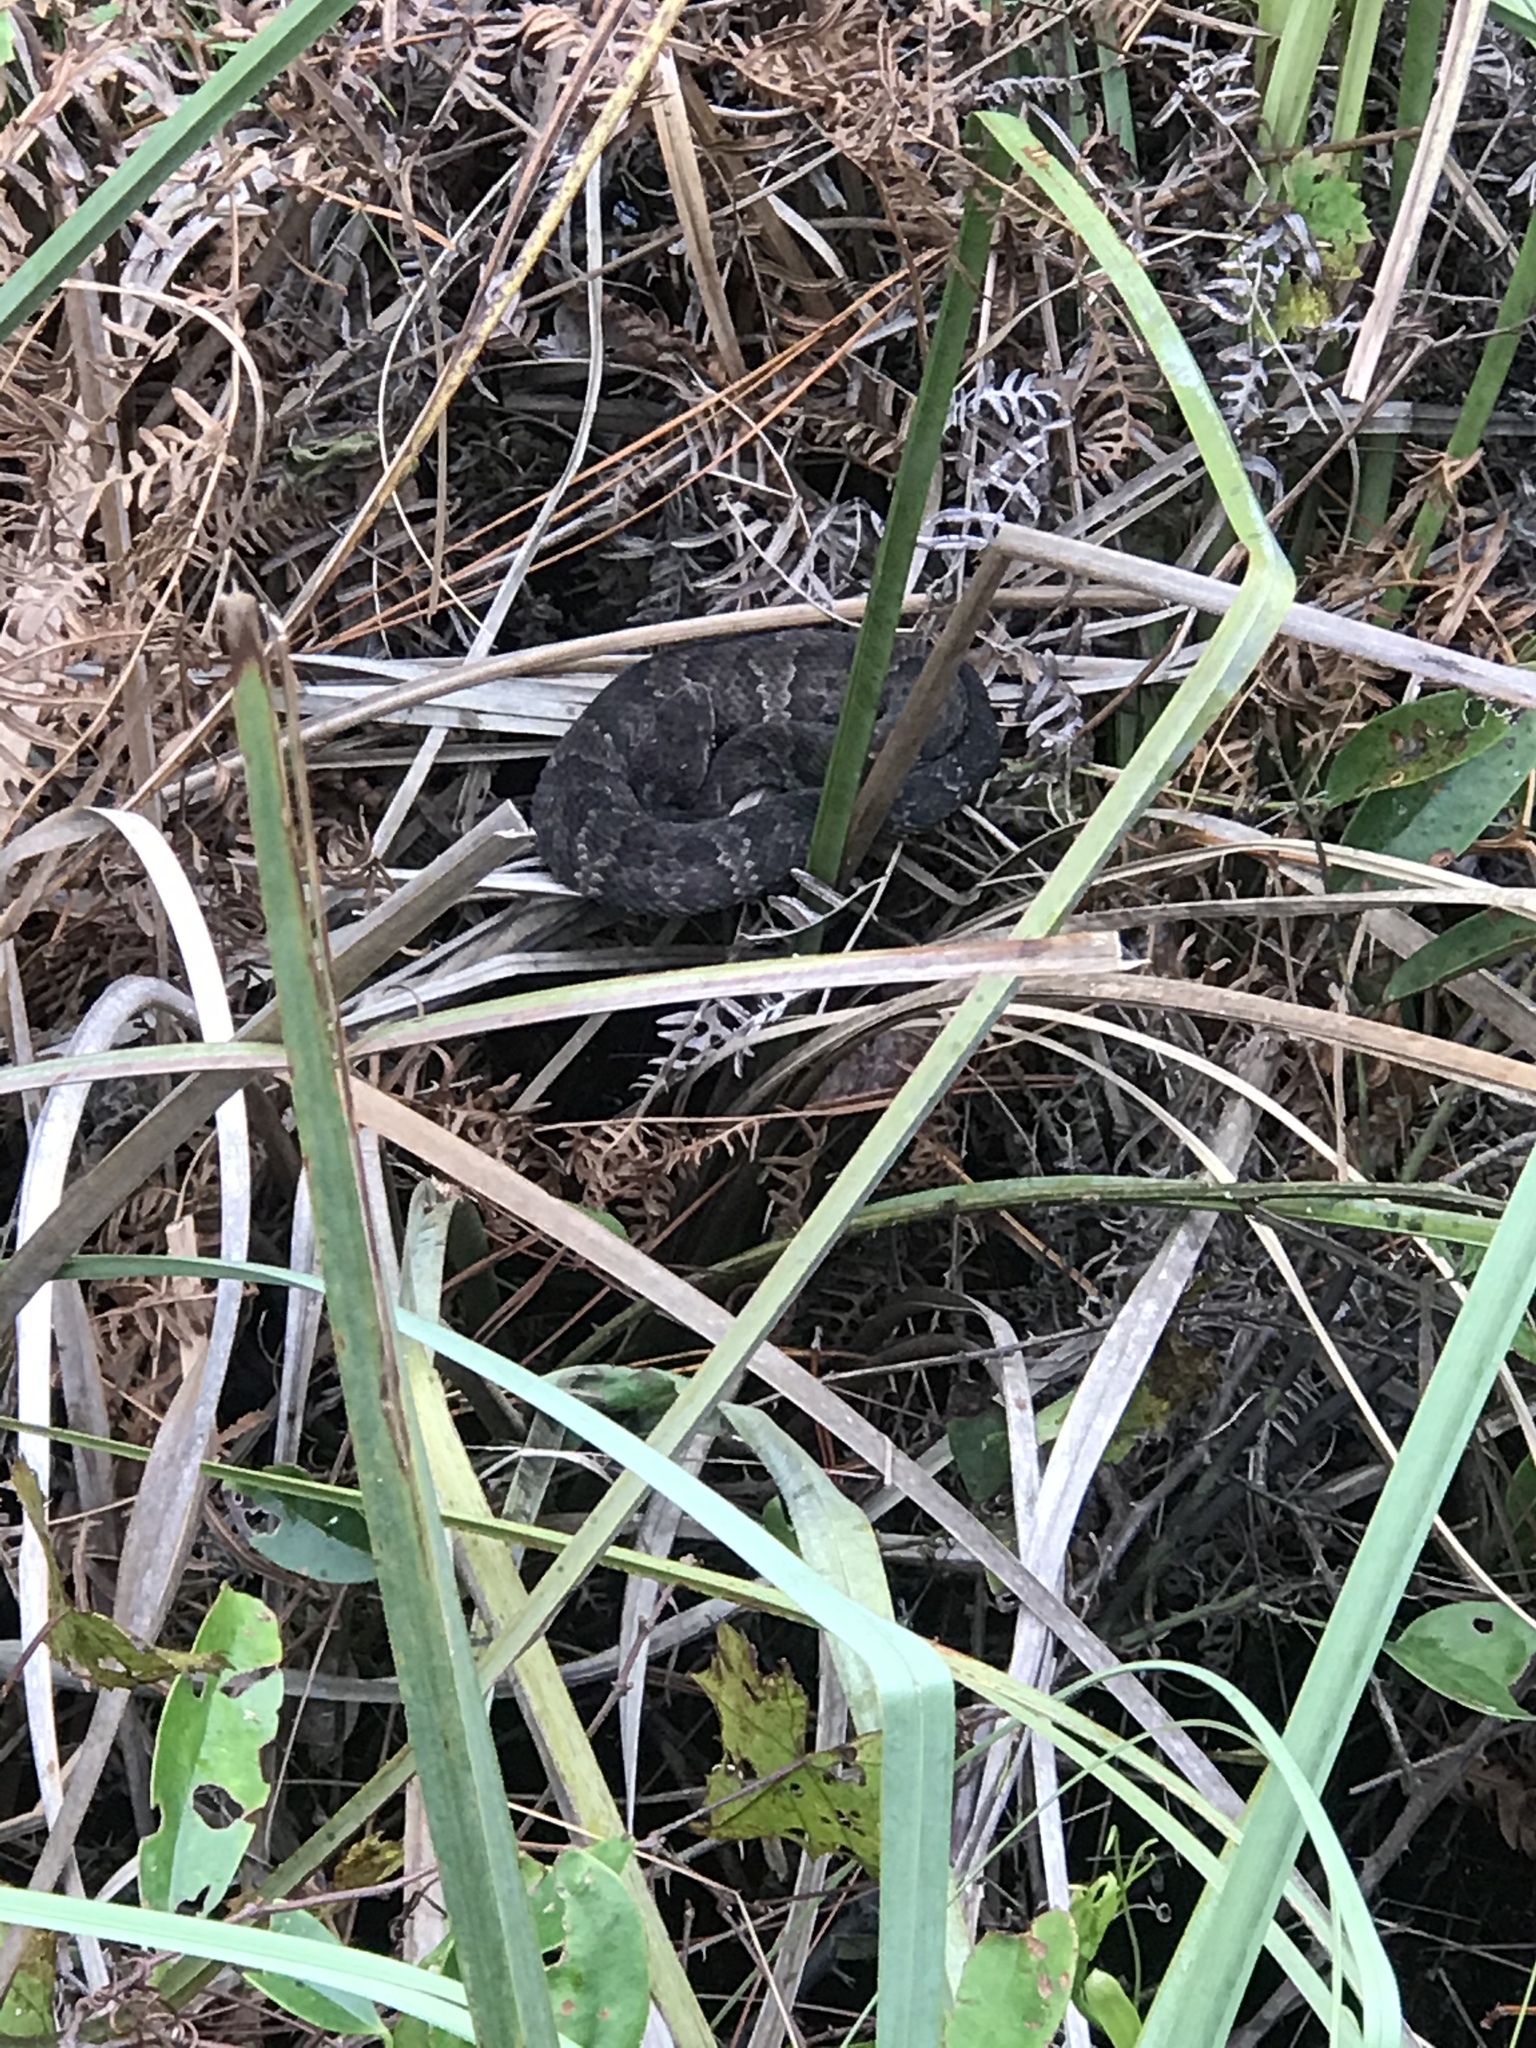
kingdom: Animalia
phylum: Chordata
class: Squamata
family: Viperidae
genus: Agkistrodon
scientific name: Agkistrodon piscivorus
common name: Cottonmouth
